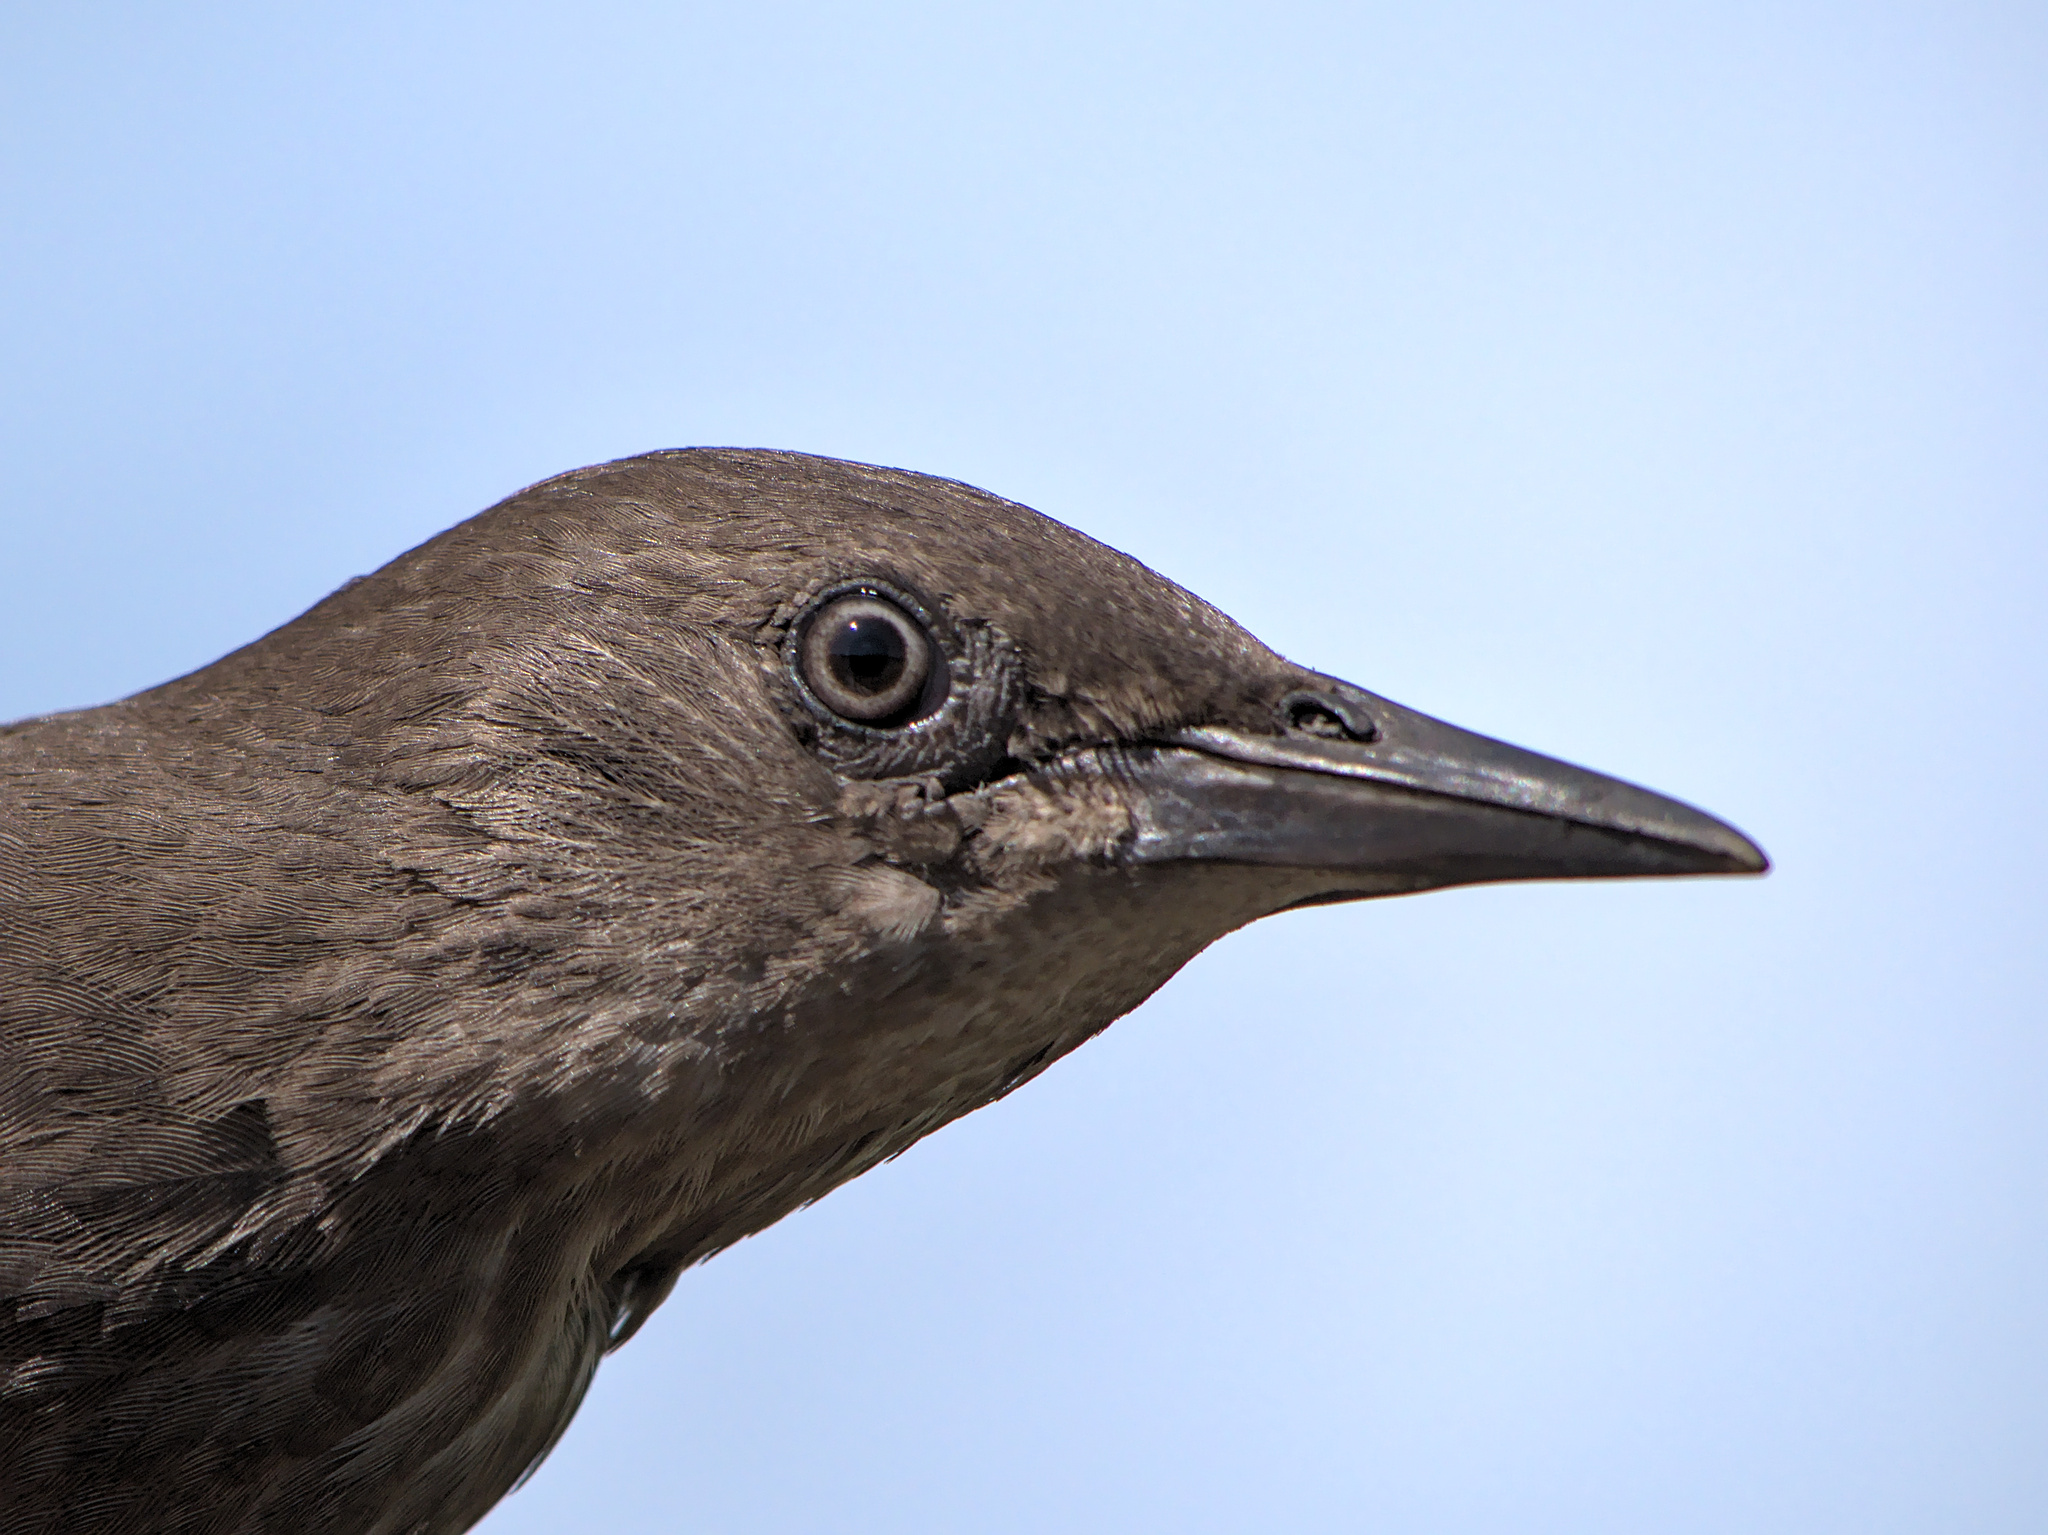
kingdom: Animalia
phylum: Chordata
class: Aves
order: Passeriformes
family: Sturnidae
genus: Sturnus
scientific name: Sturnus vulgaris
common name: Common starling
